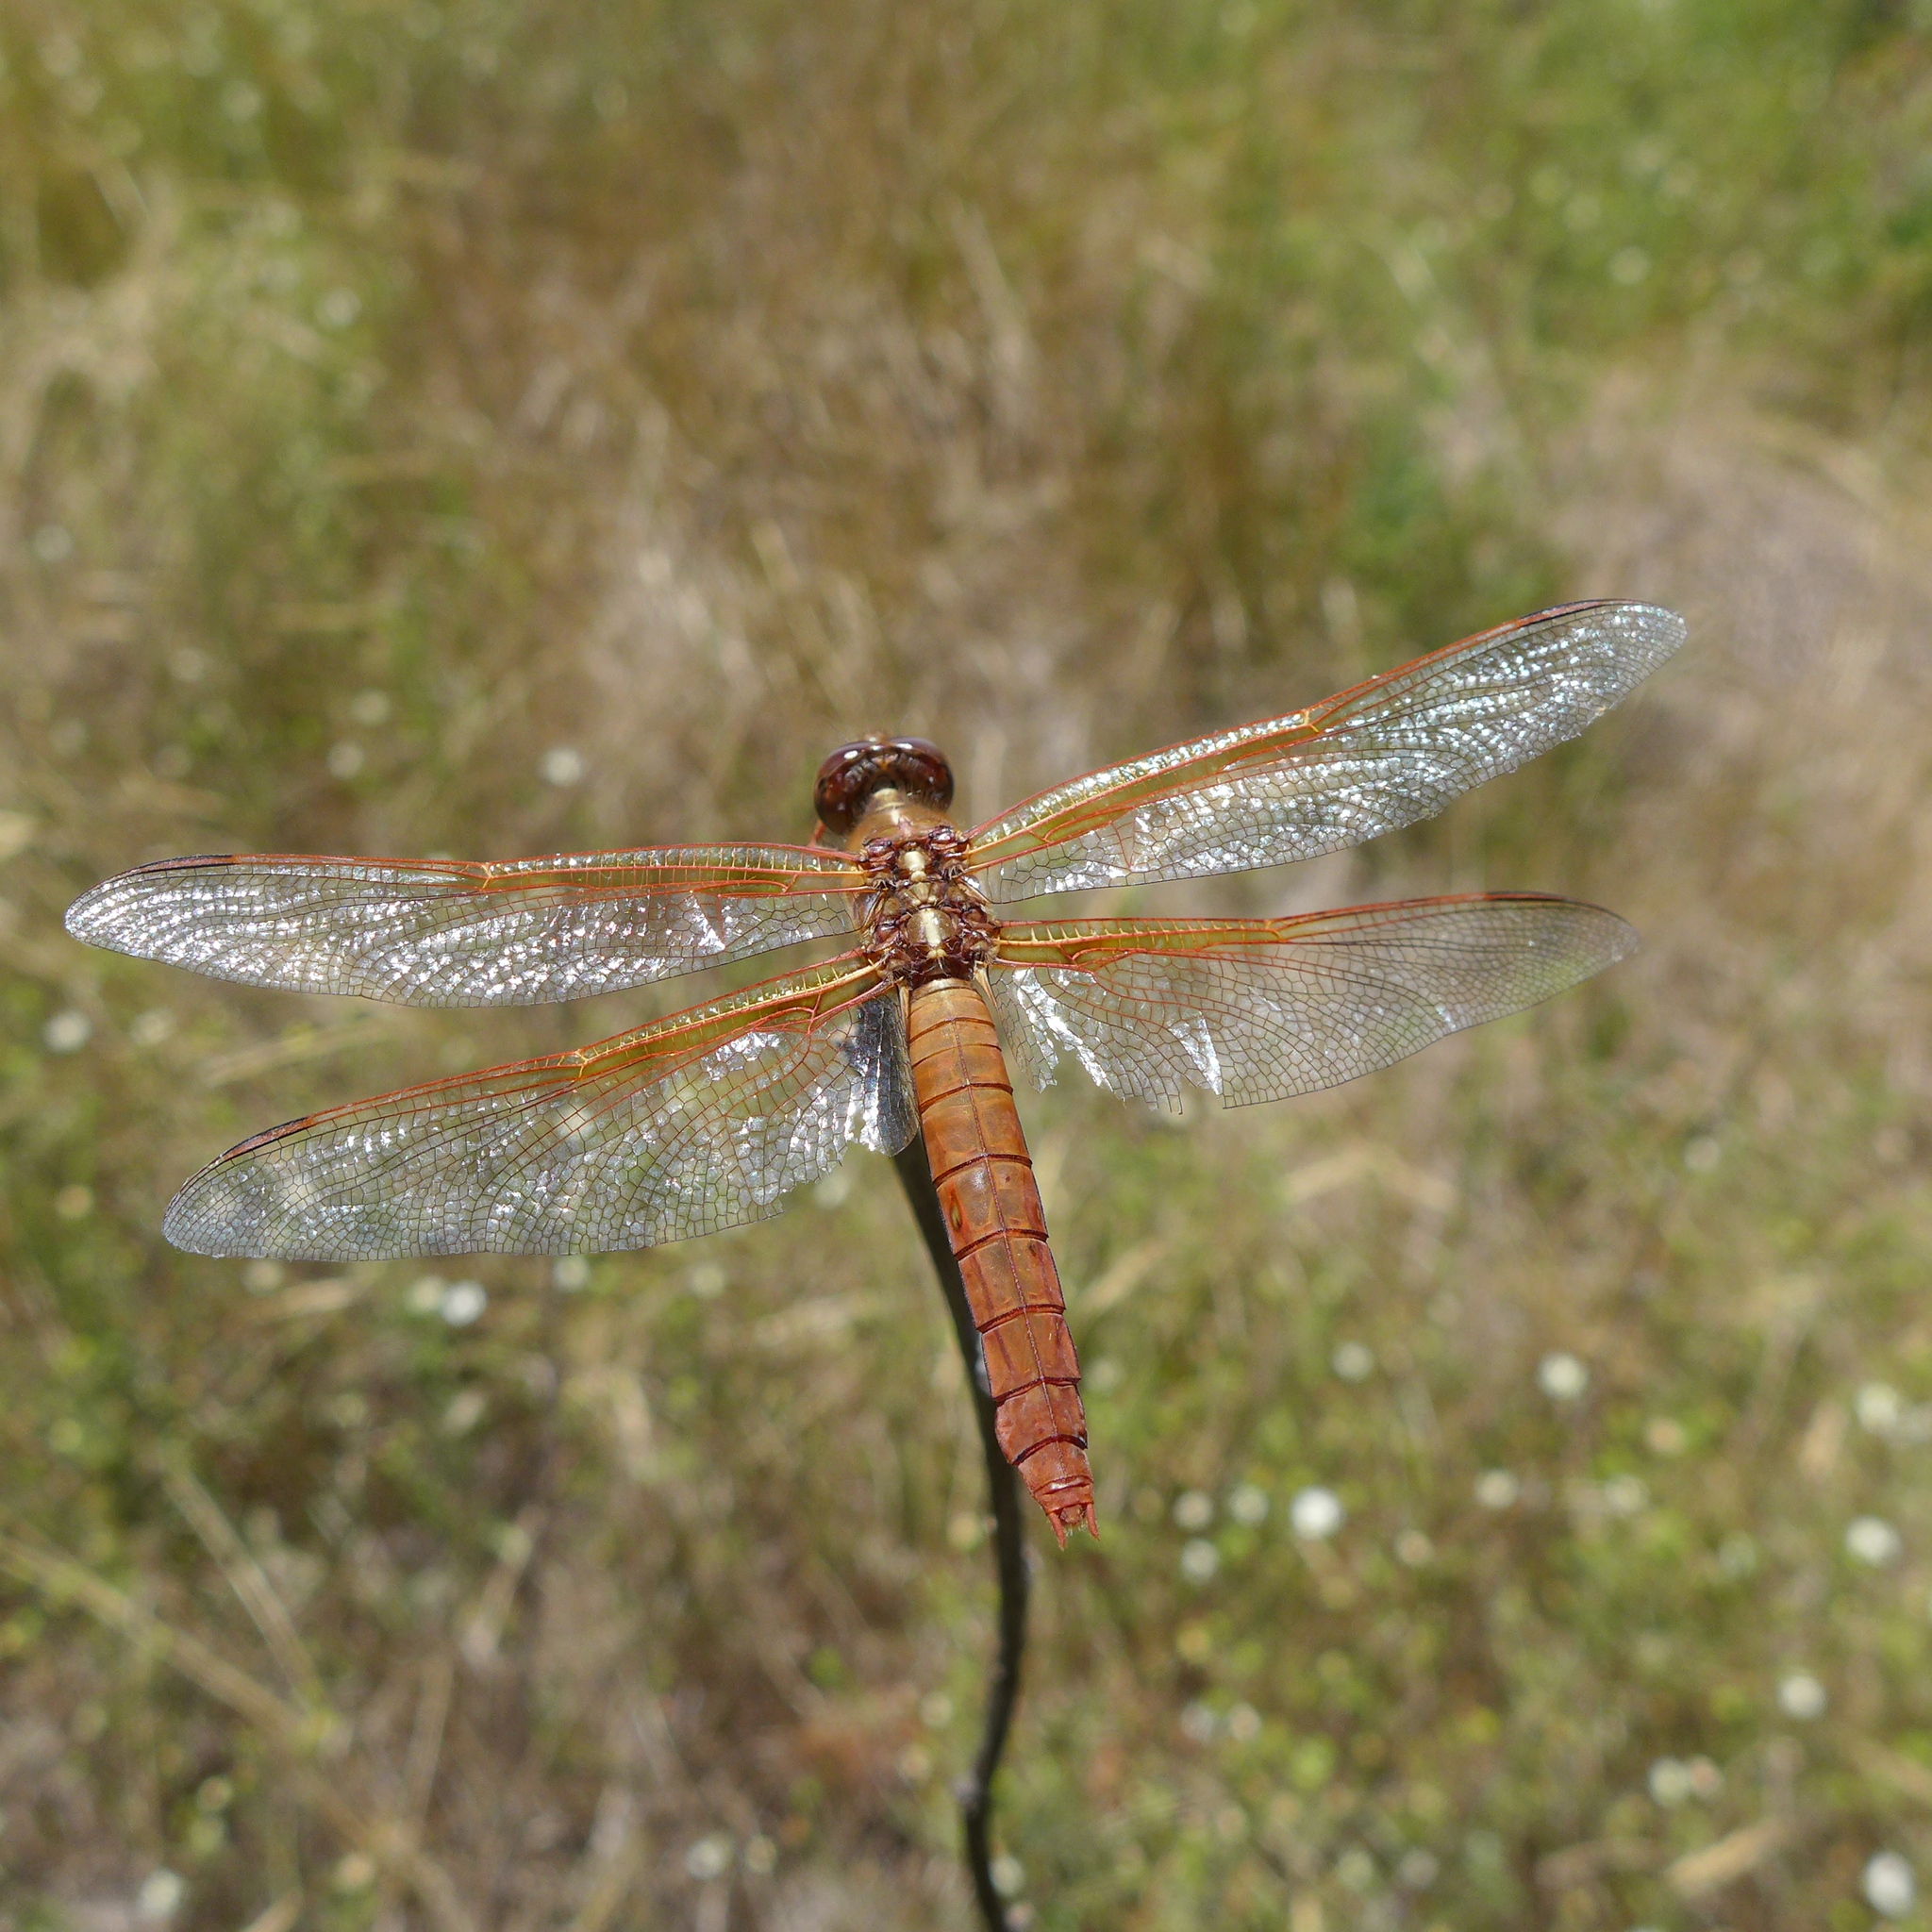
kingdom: Animalia
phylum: Arthropoda
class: Insecta
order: Odonata
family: Libellulidae
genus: Libellula
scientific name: Libellula saturata
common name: Flame skimmer
